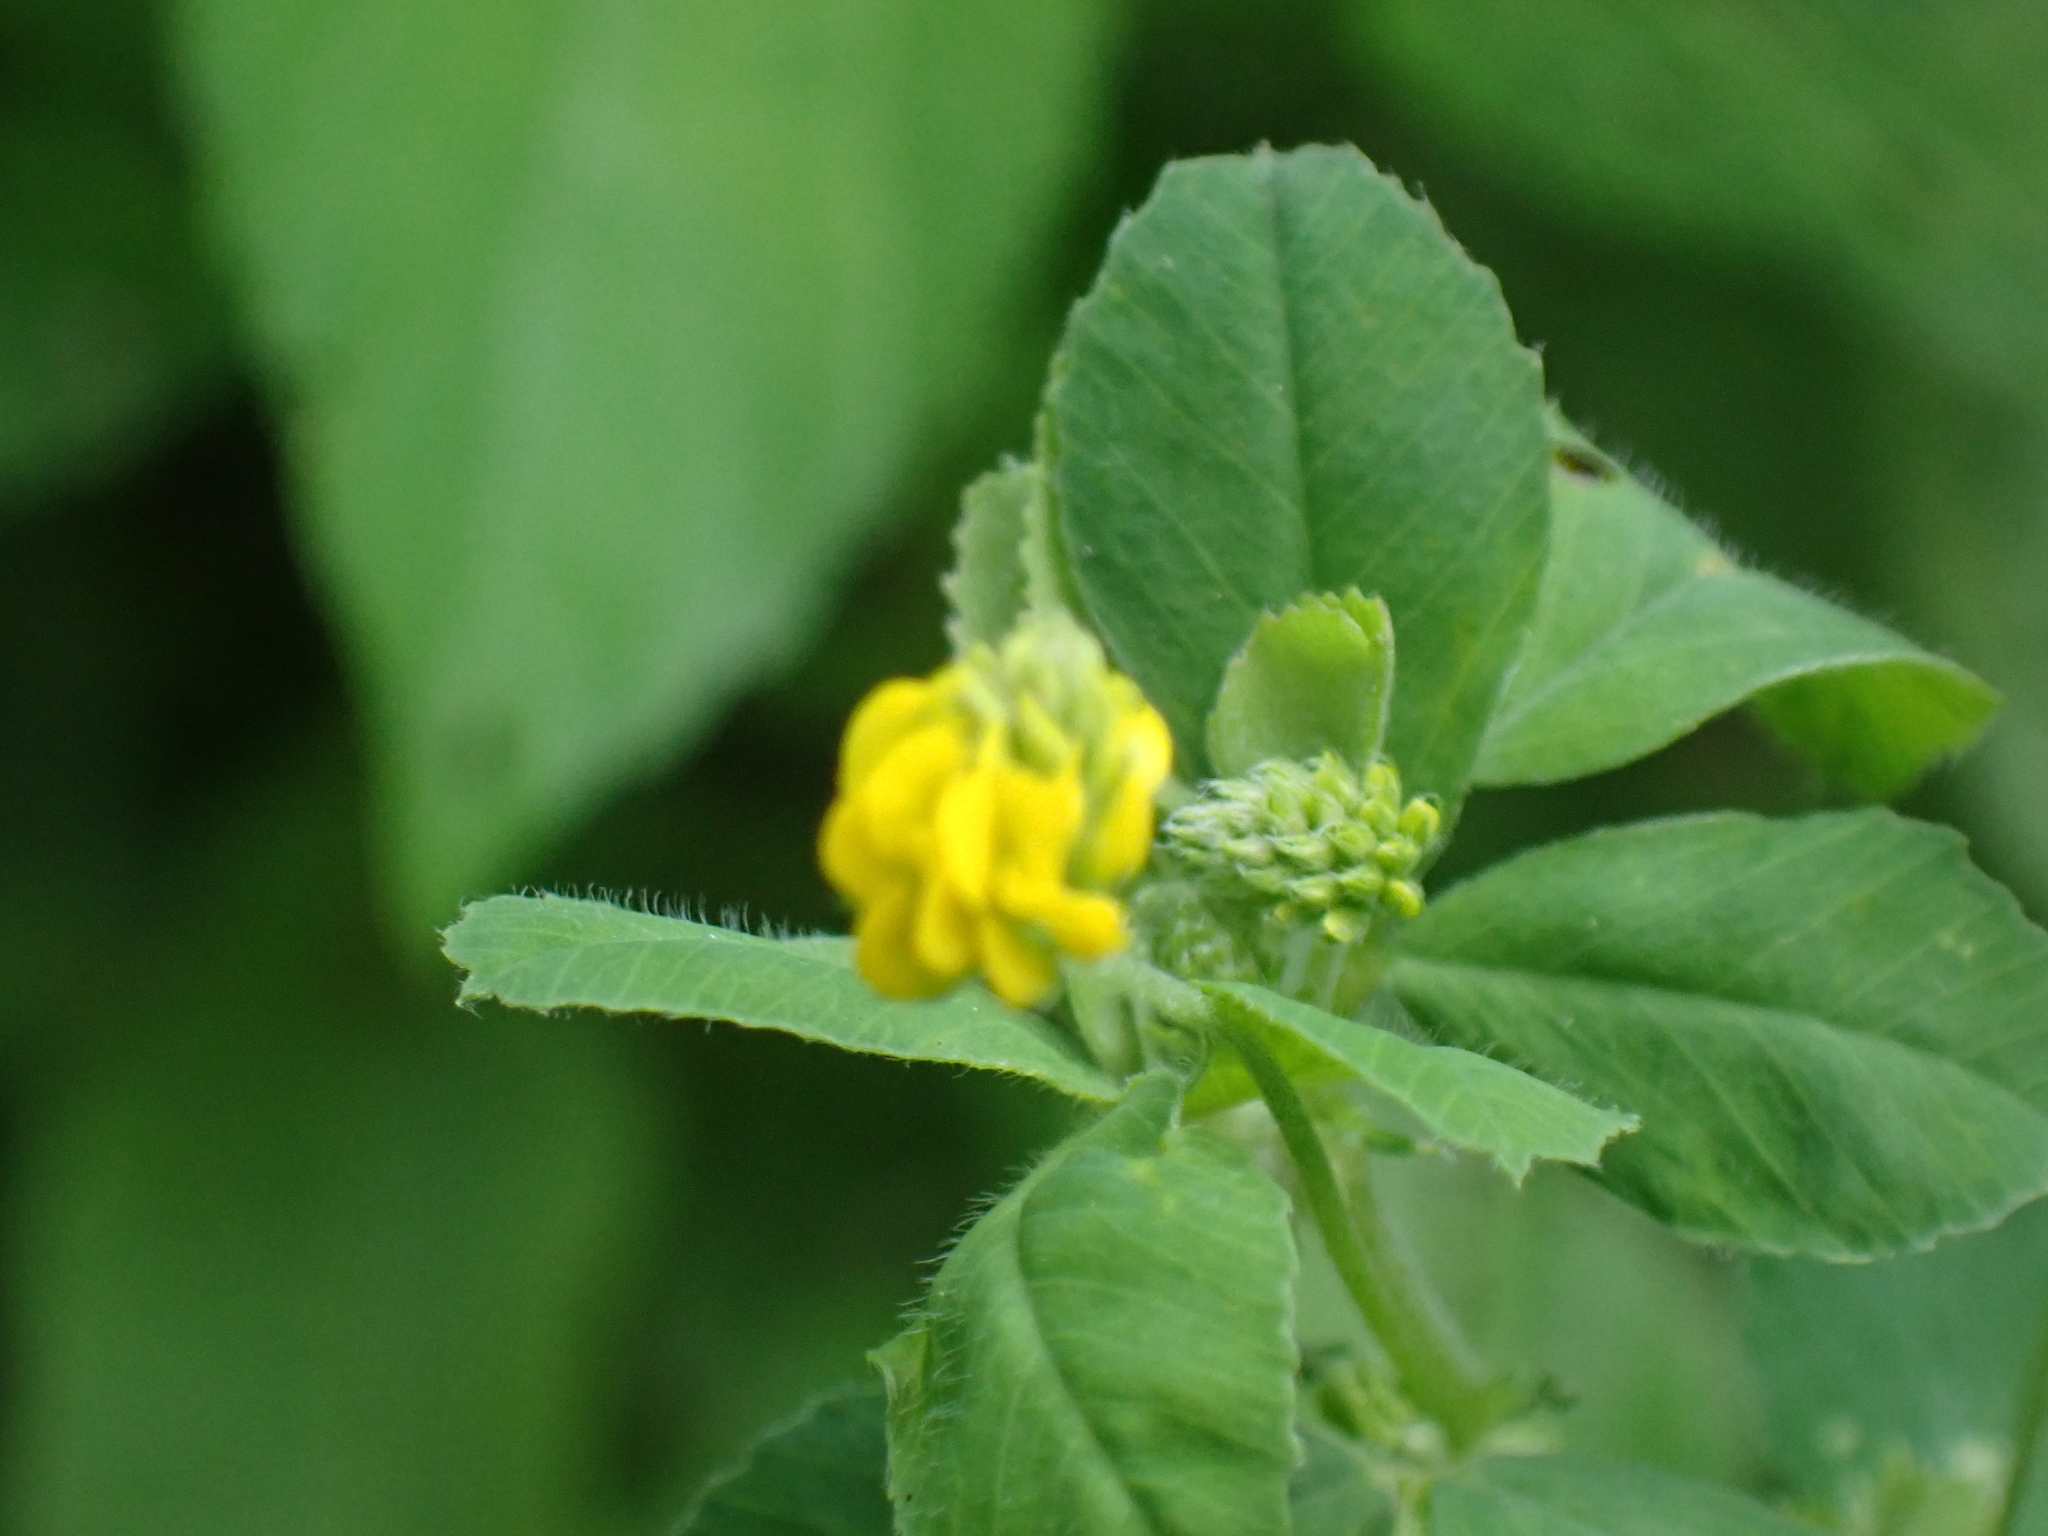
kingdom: Plantae
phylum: Tracheophyta
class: Magnoliopsida
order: Fabales
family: Fabaceae
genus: Medicago
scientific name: Medicago lupulina
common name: Black medick
